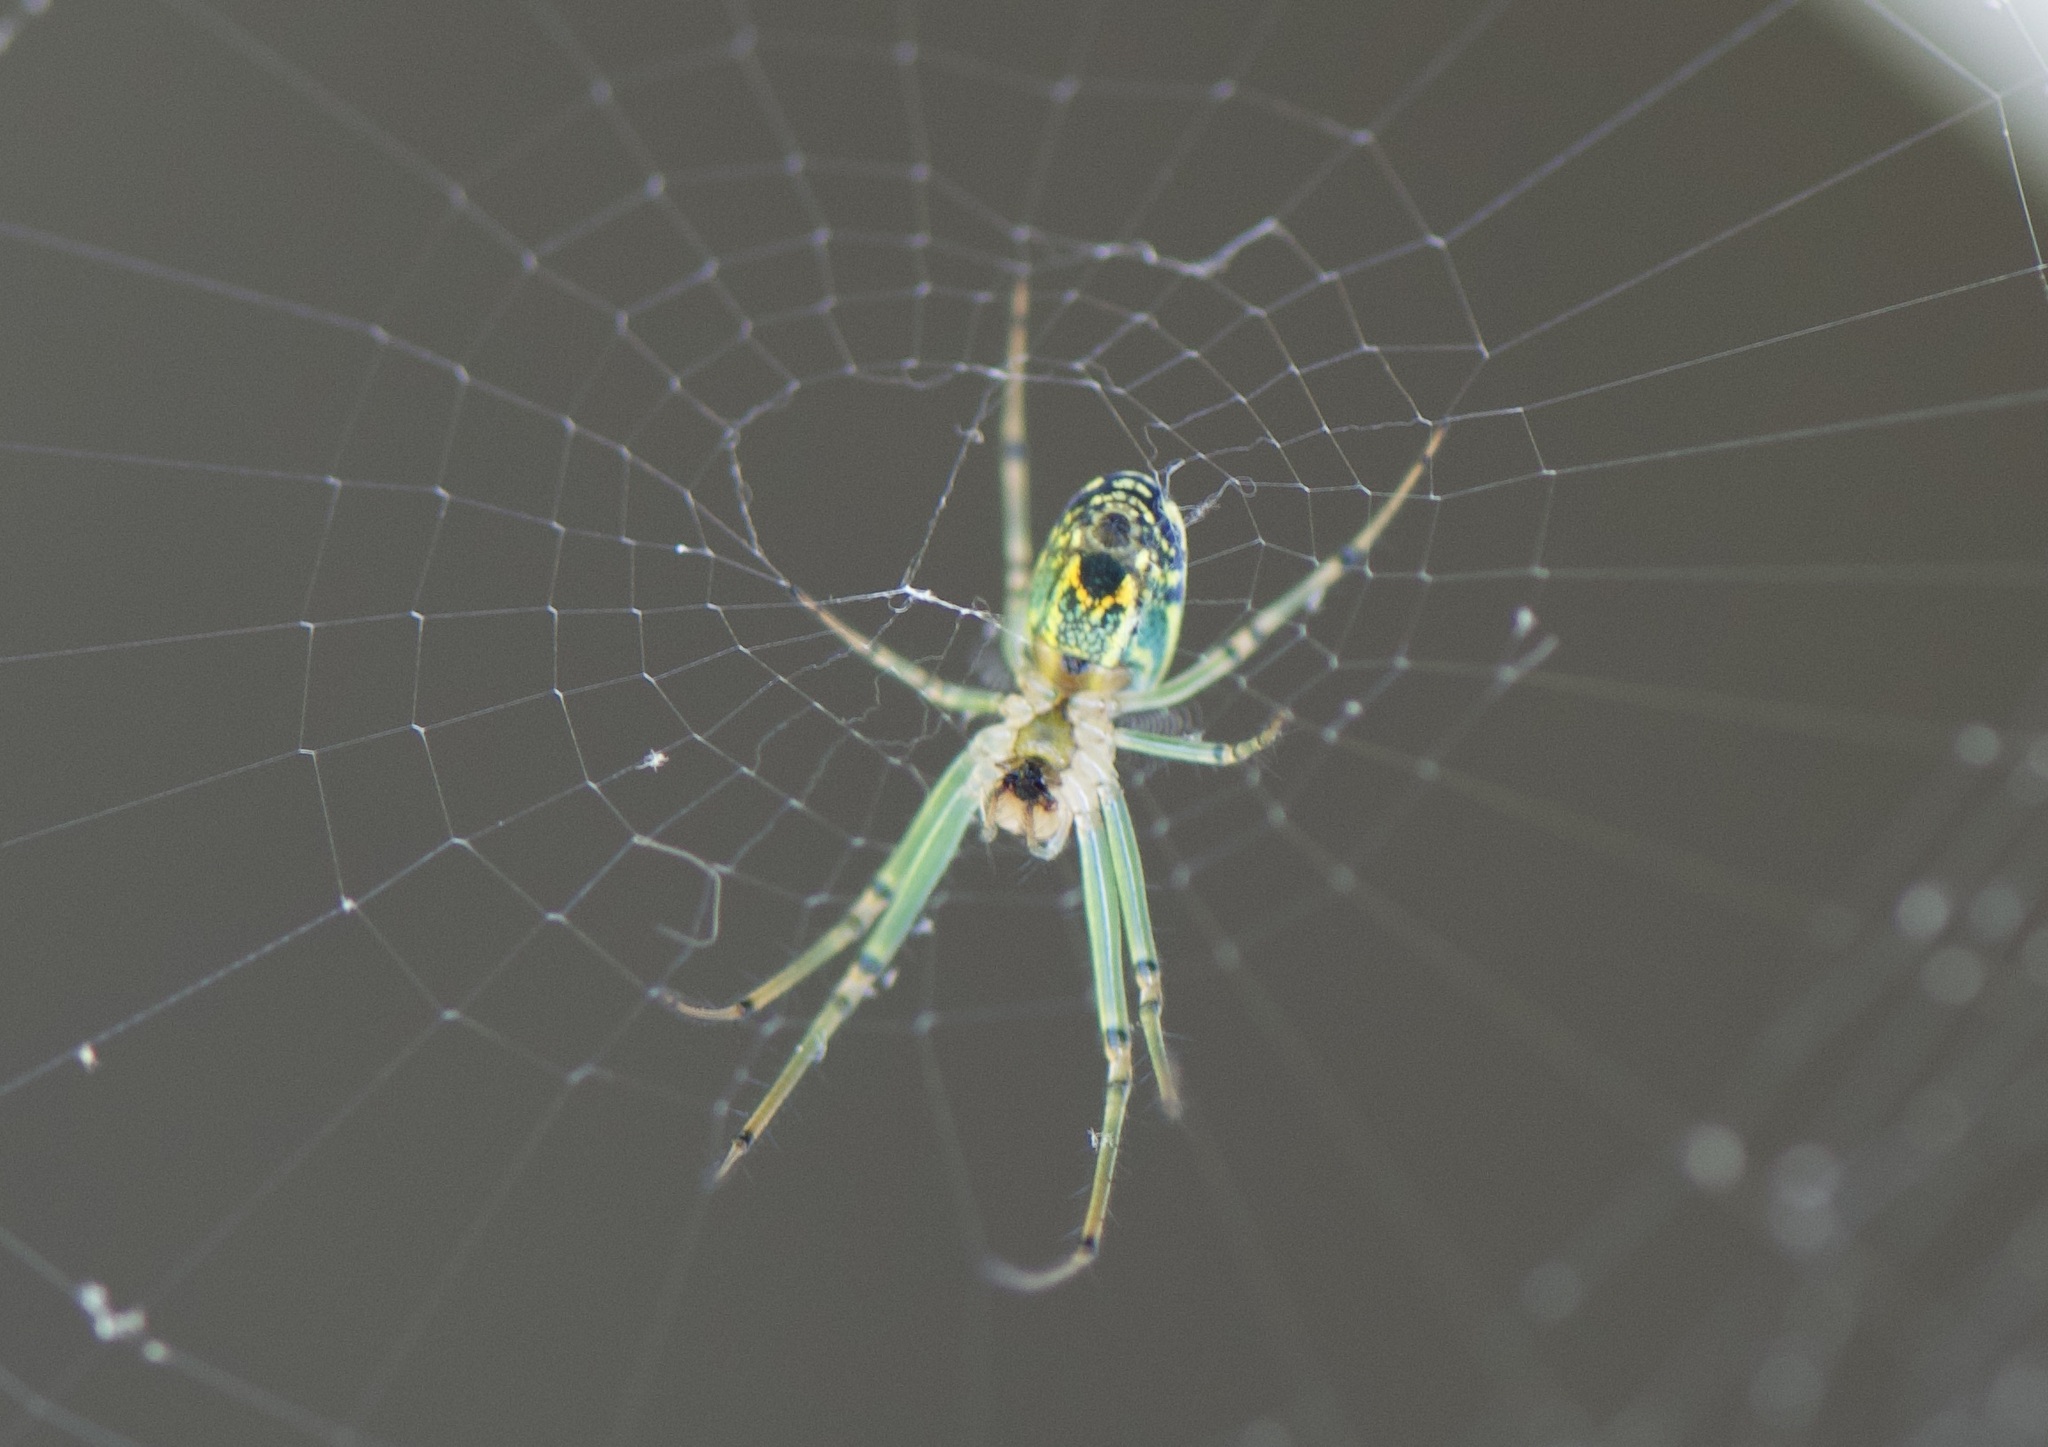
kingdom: Animalia
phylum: Arthropoda
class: Arachnida
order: Araneae
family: Tetragnathidae
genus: Leucauge
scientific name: Leucauge venusta
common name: Longjawed orb weavers
